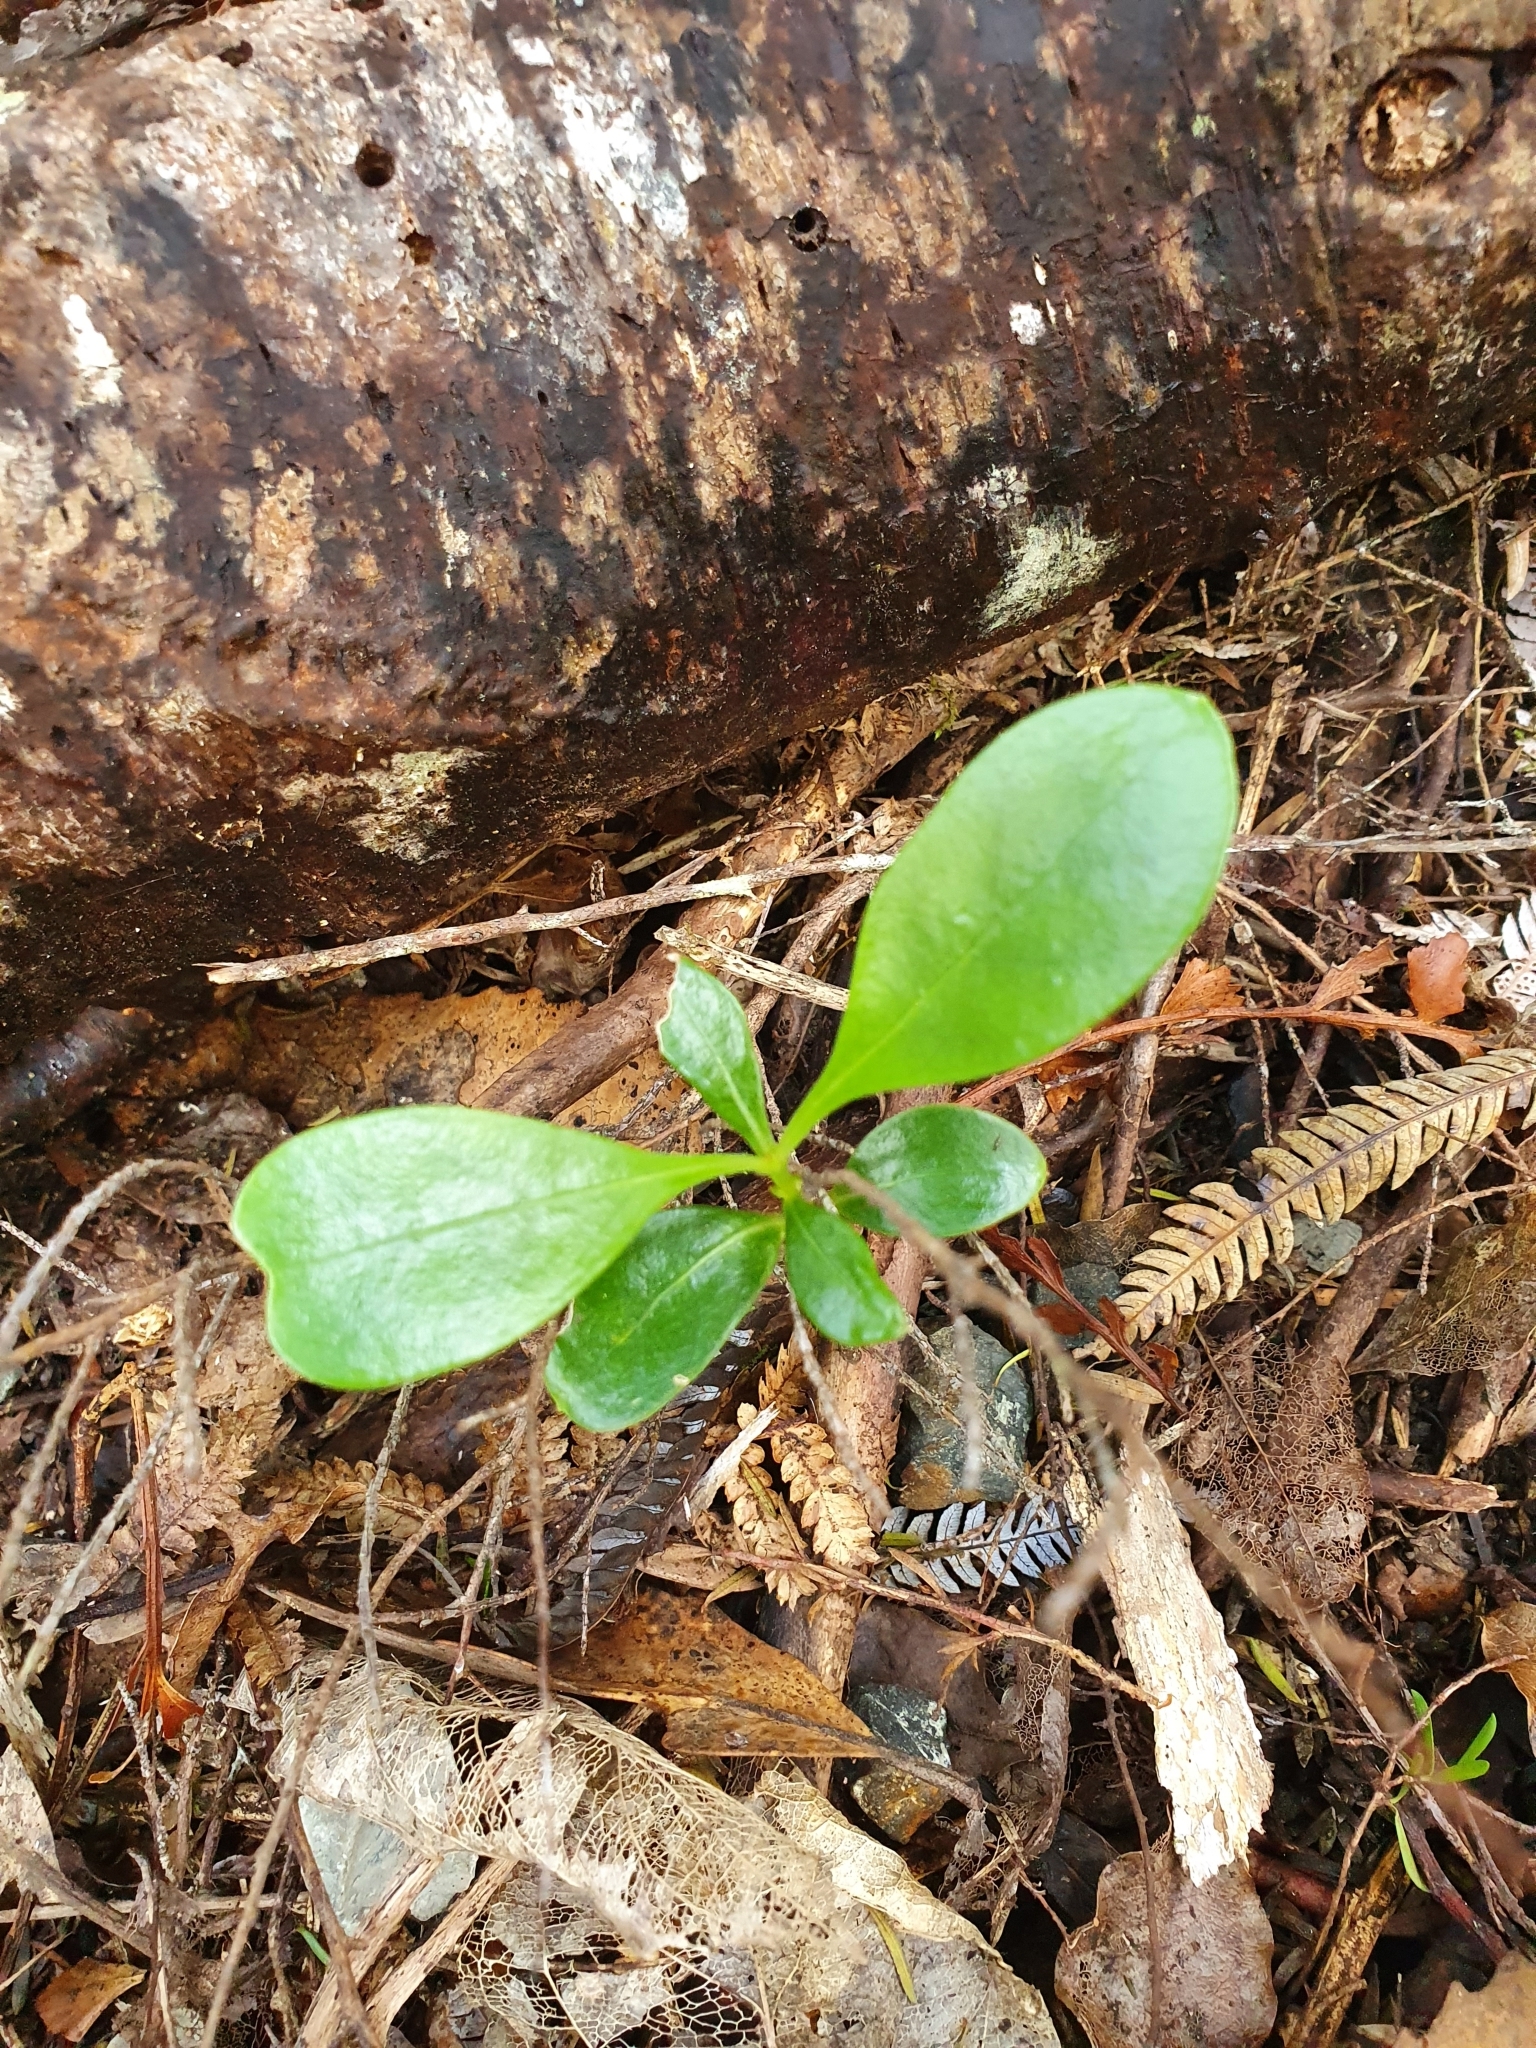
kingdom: Plantae
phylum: Tracheophyta
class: Magnoliopsida
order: Gentianales
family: Rubiaceae
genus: Coprosma
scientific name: Coprosma lucida
